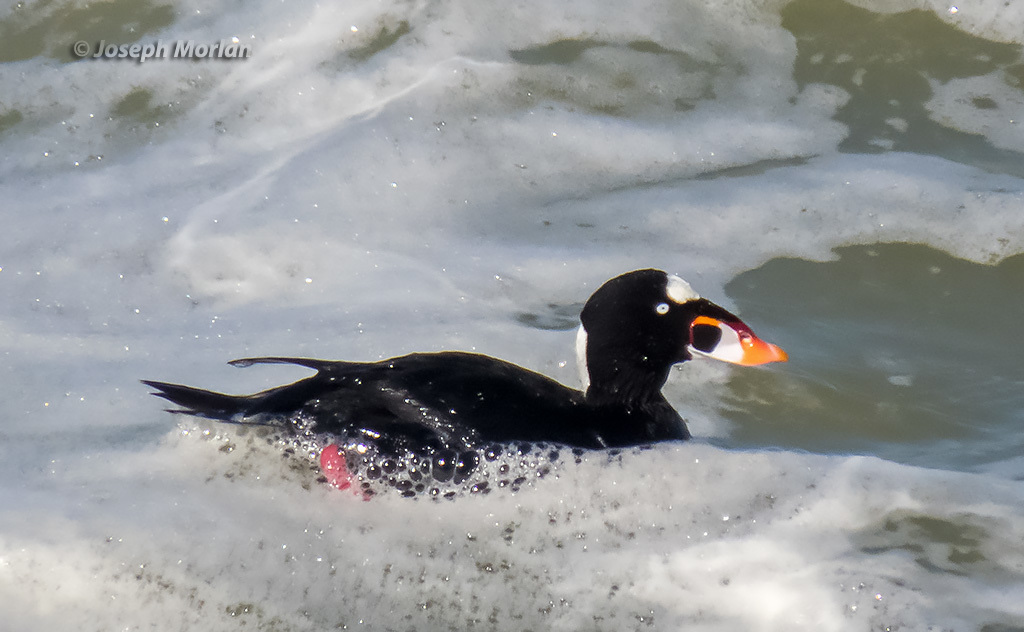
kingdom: Animalia
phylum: Chordata
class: Aves
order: Anseriformes
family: Anatidae
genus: Melanitta
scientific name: Melanitta perspicillata
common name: Surf scoter
